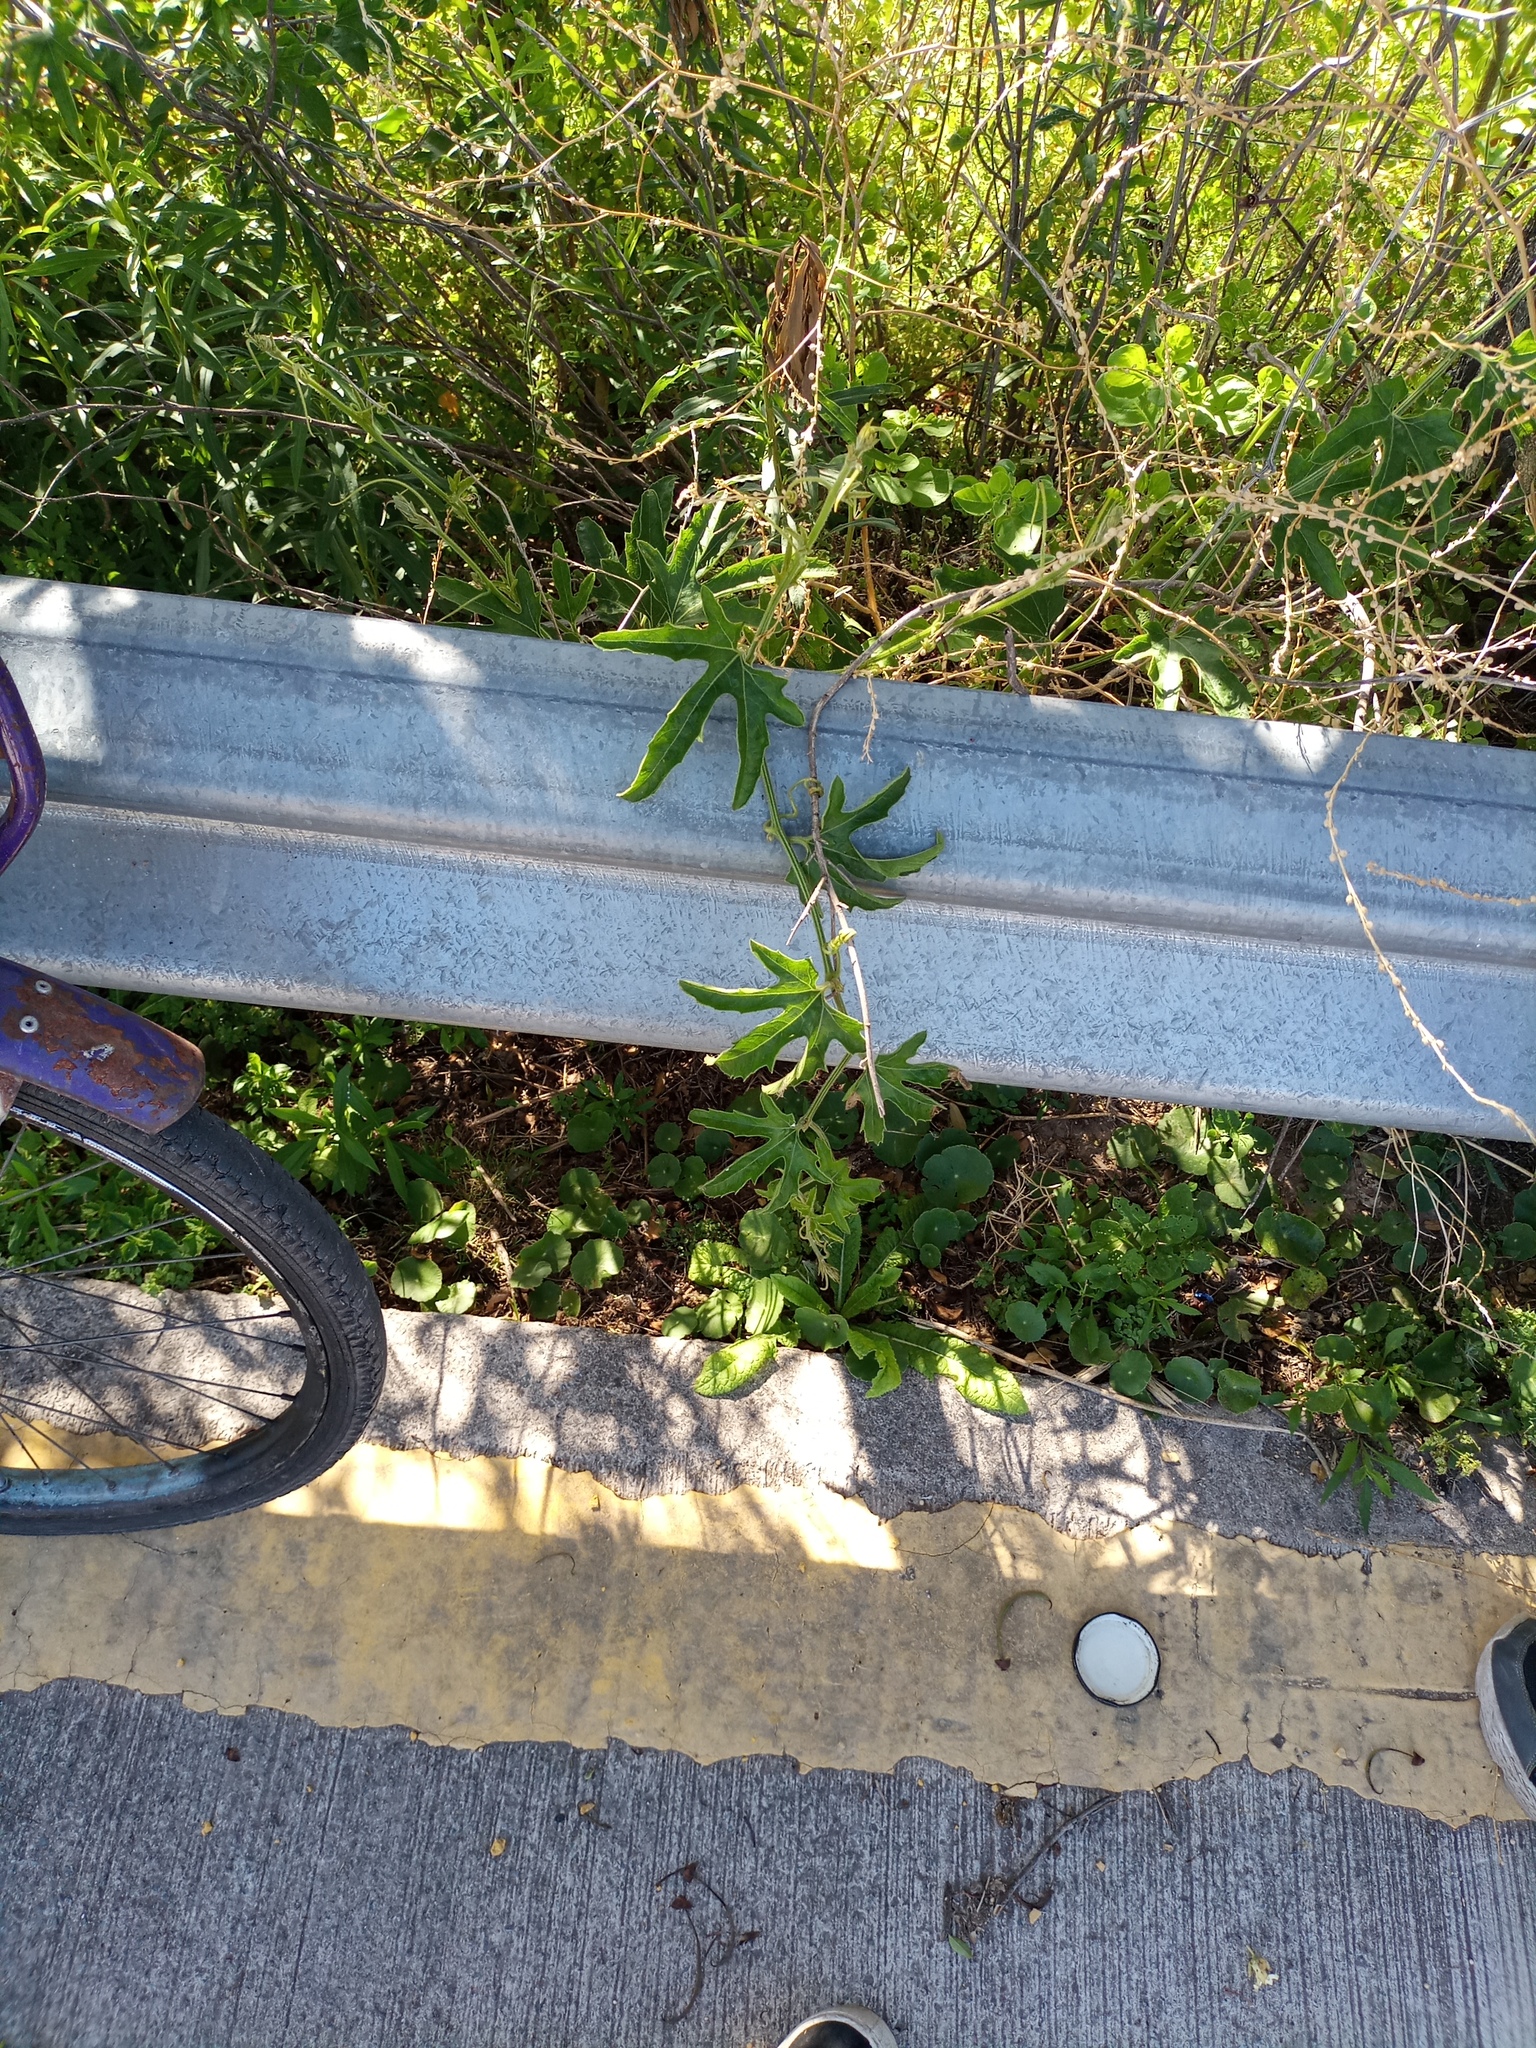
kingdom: Plantae
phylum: Tracheophyta
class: Magnoliopsida
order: Cucurbitales
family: Cucurbitaceae
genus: Cayaponia
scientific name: Cayaponia bonariensis
